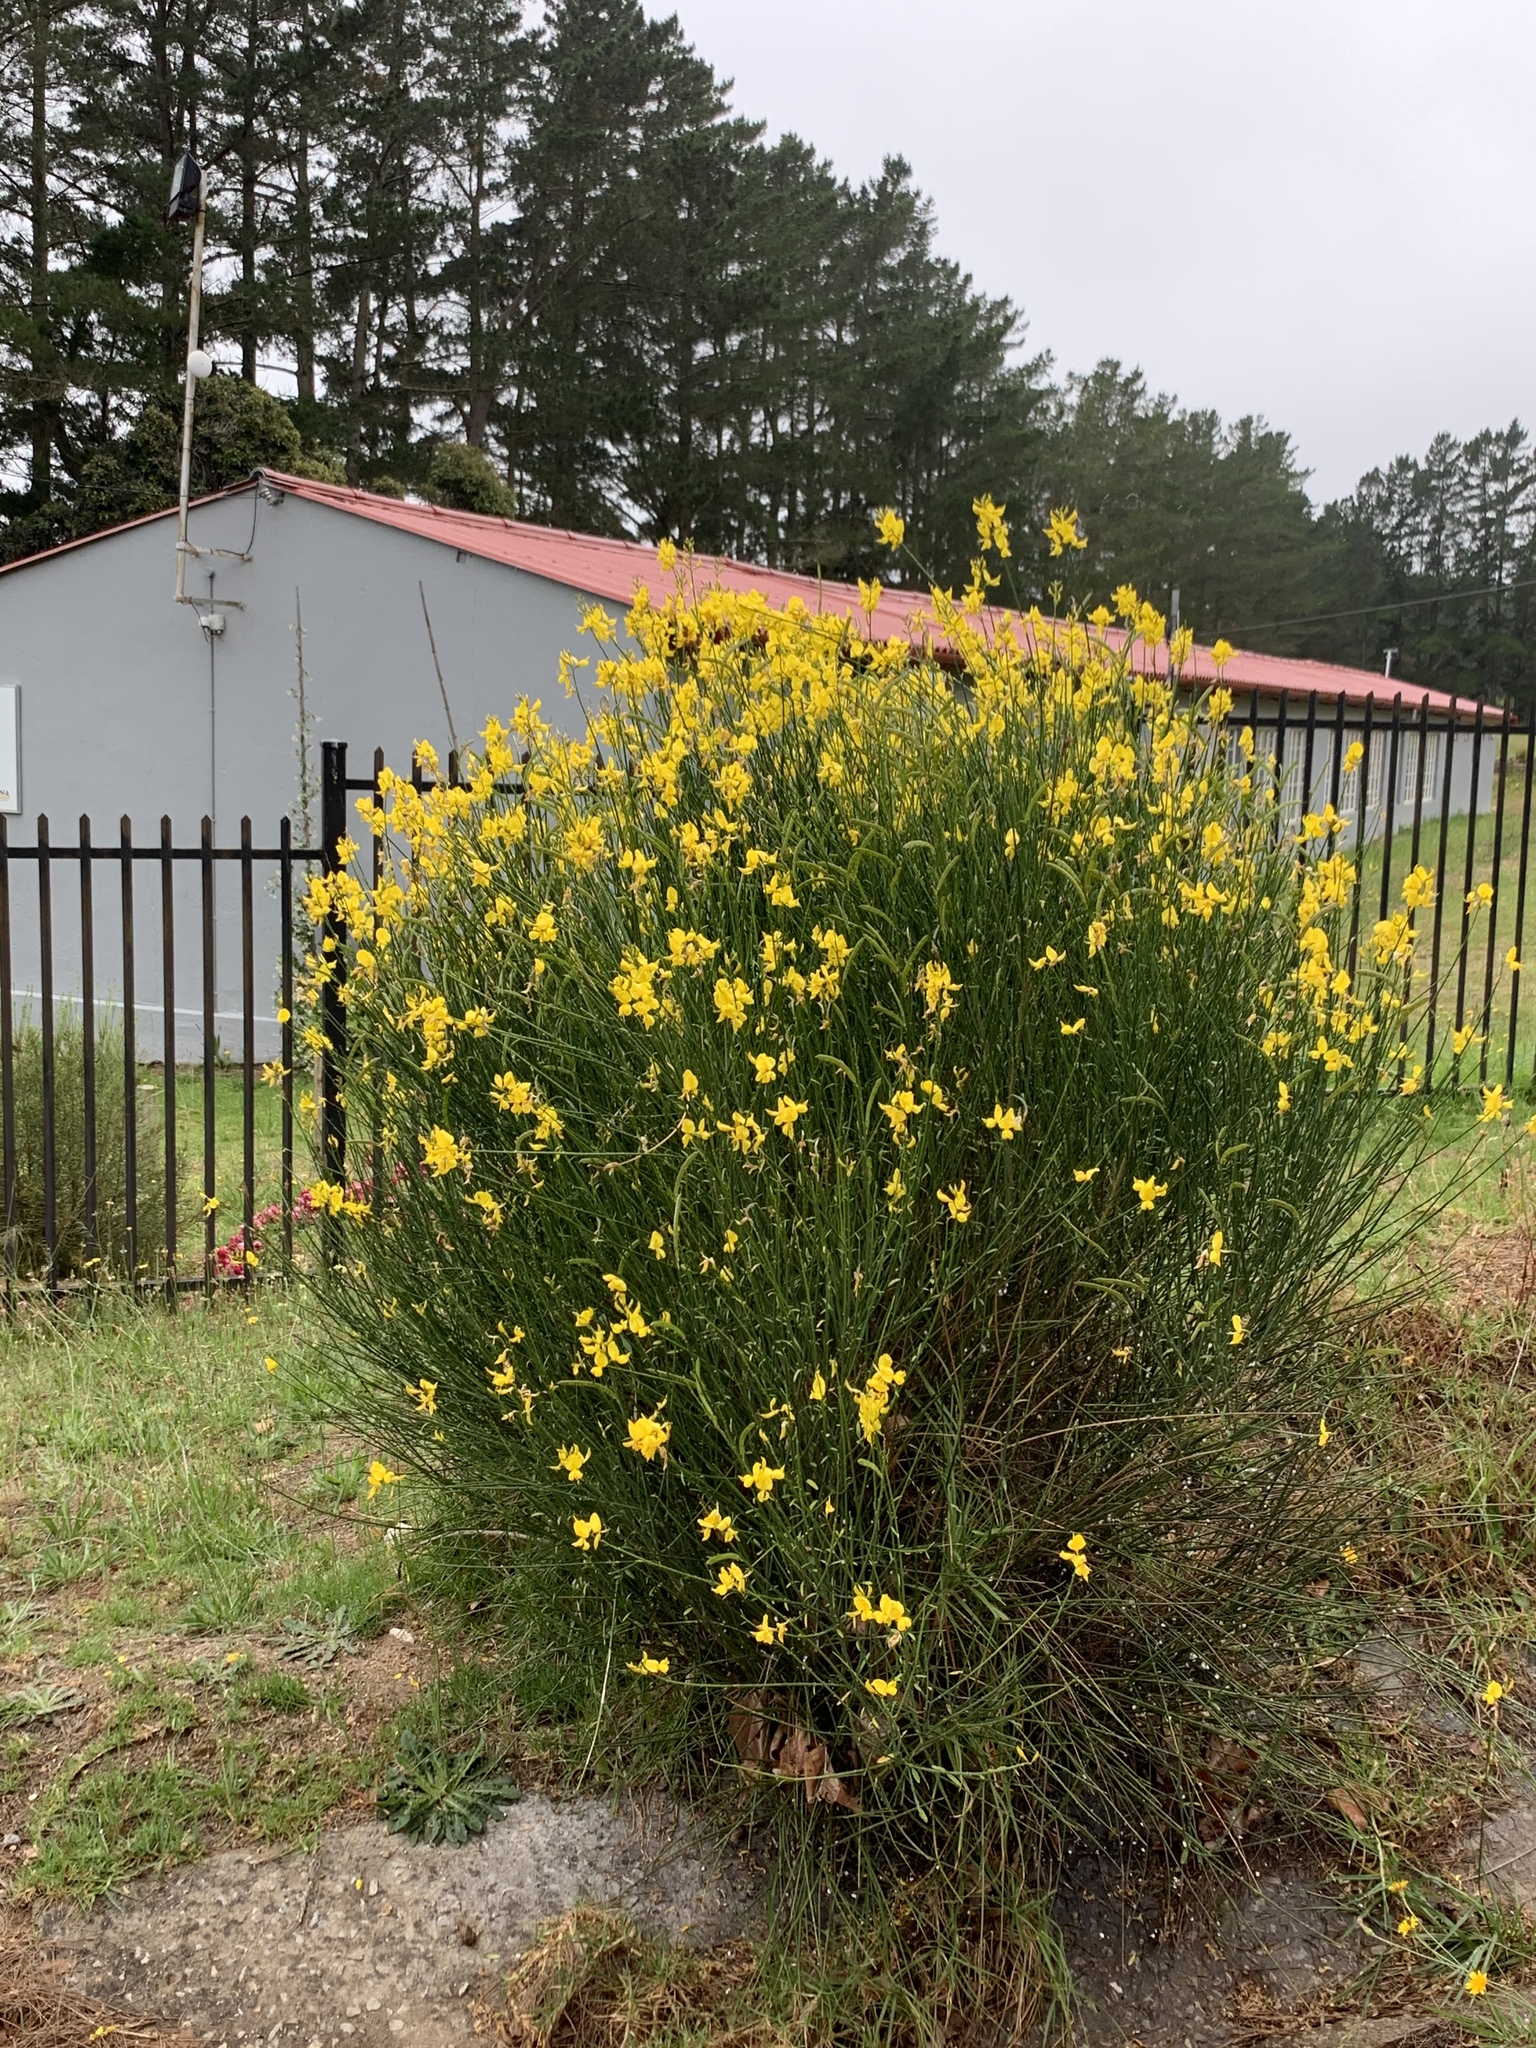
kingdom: Plantae
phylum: Tracheophyta
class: Magnoliopsida
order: Fabales
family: Fabaceae
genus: Spartium
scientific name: Spartium junceum
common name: Spanish broom
